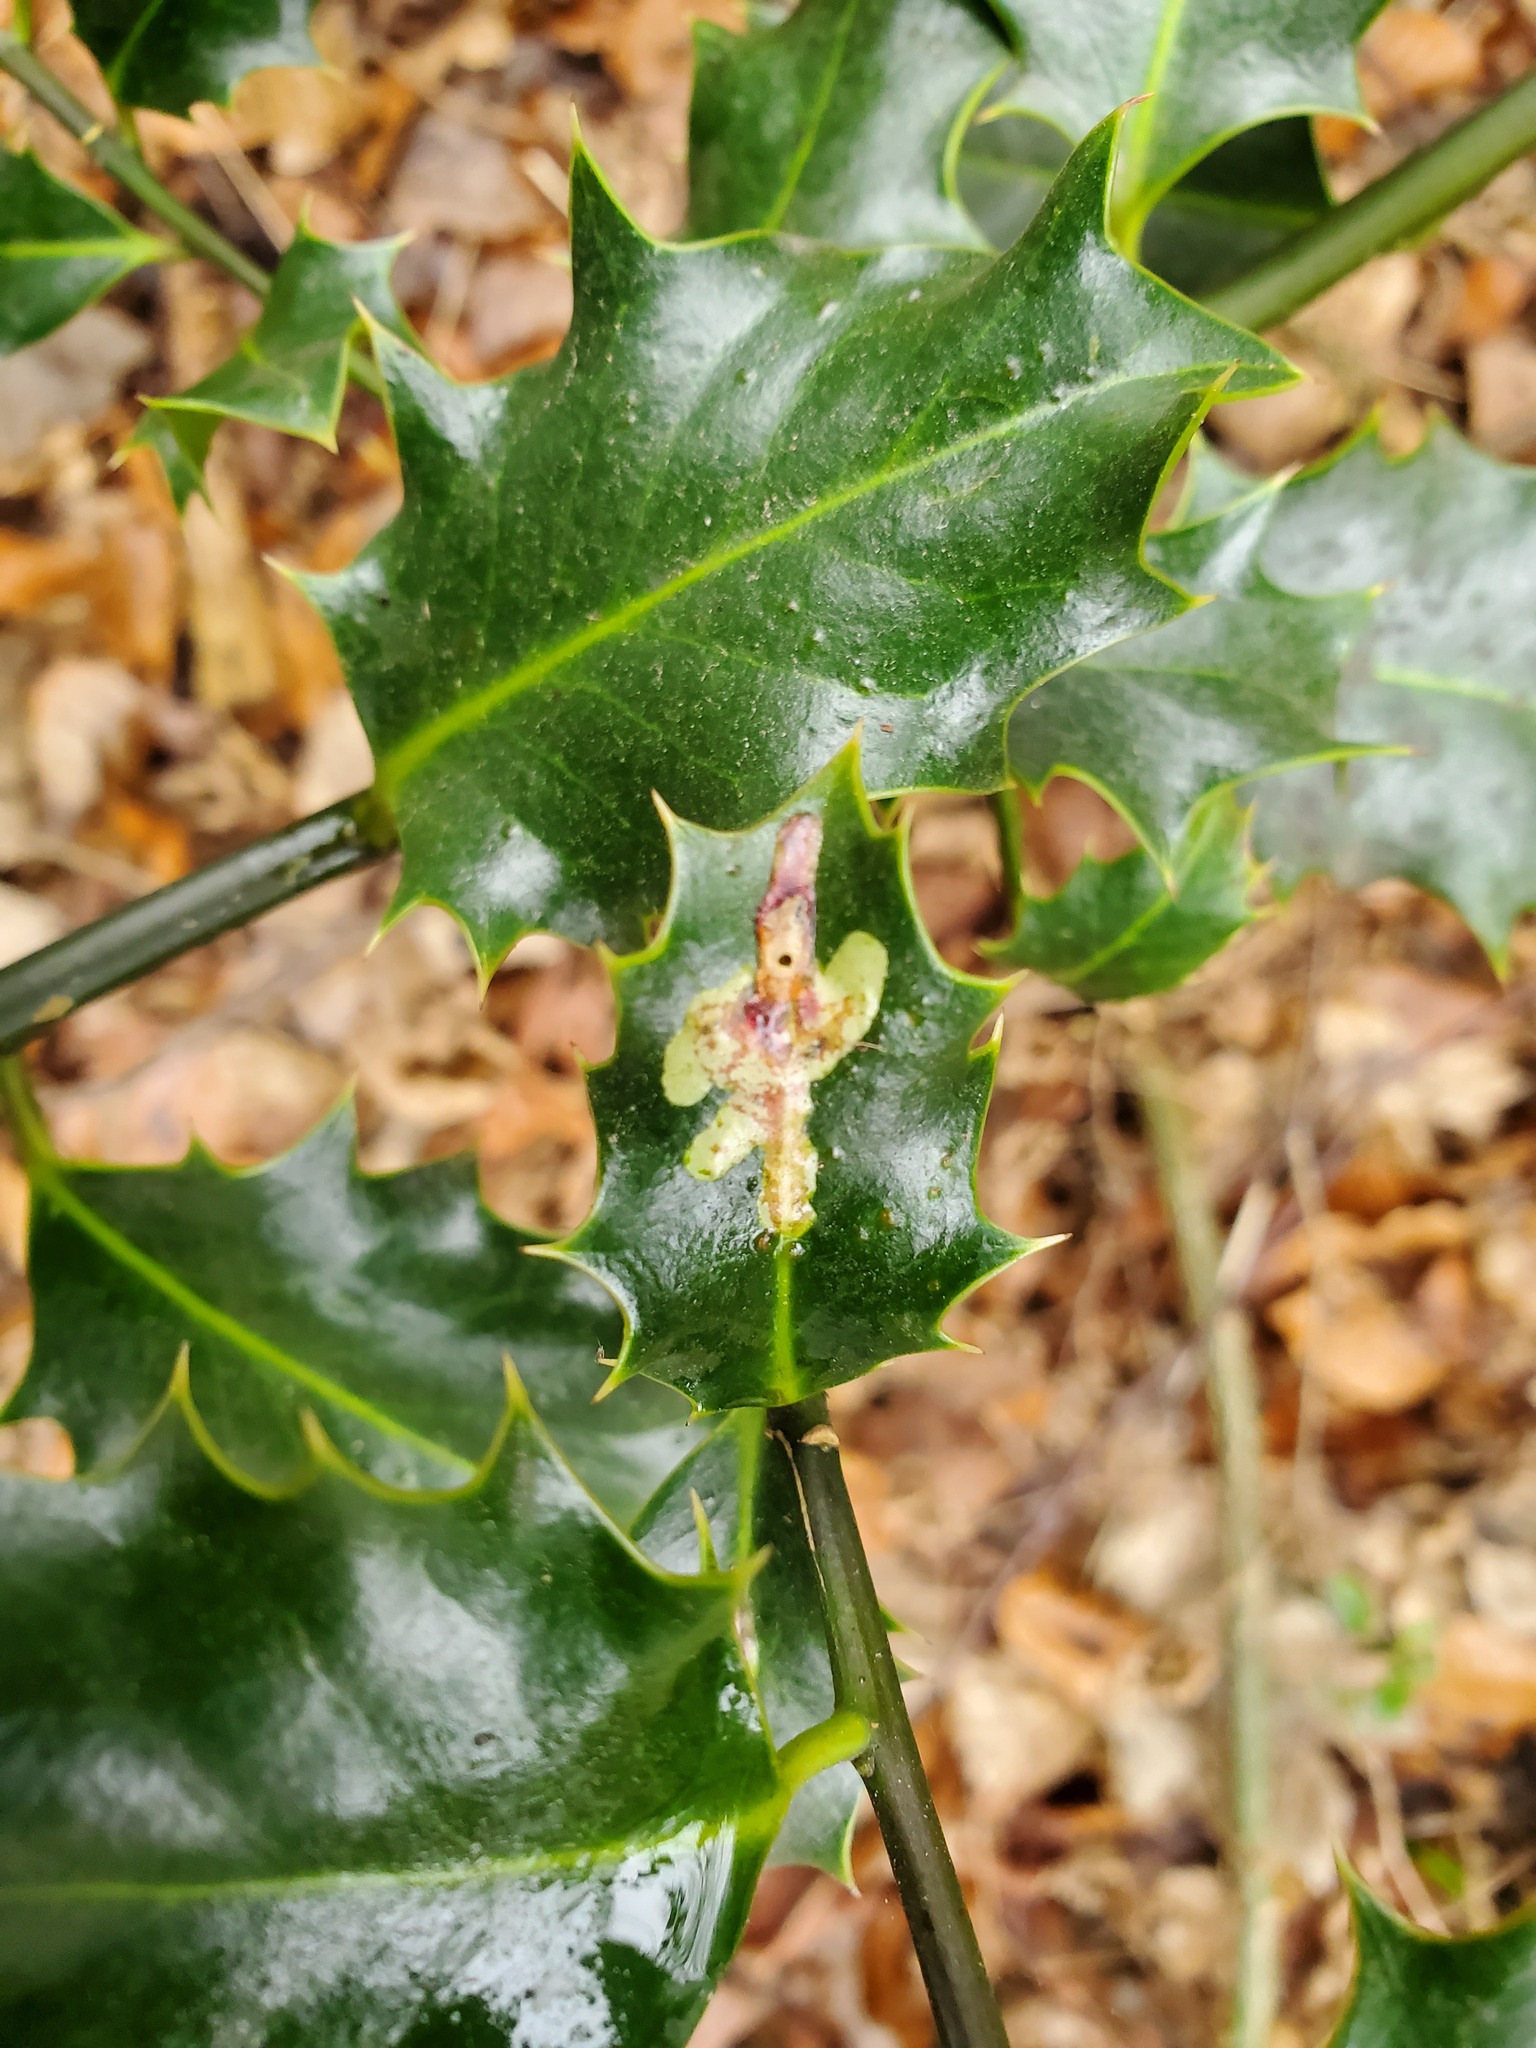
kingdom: Animalia
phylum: Arthropoda
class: Insecta
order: Diptera
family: Agromyzidae
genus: Phytomyza
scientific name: Phytomyza ilicis
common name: Holly leafminer
